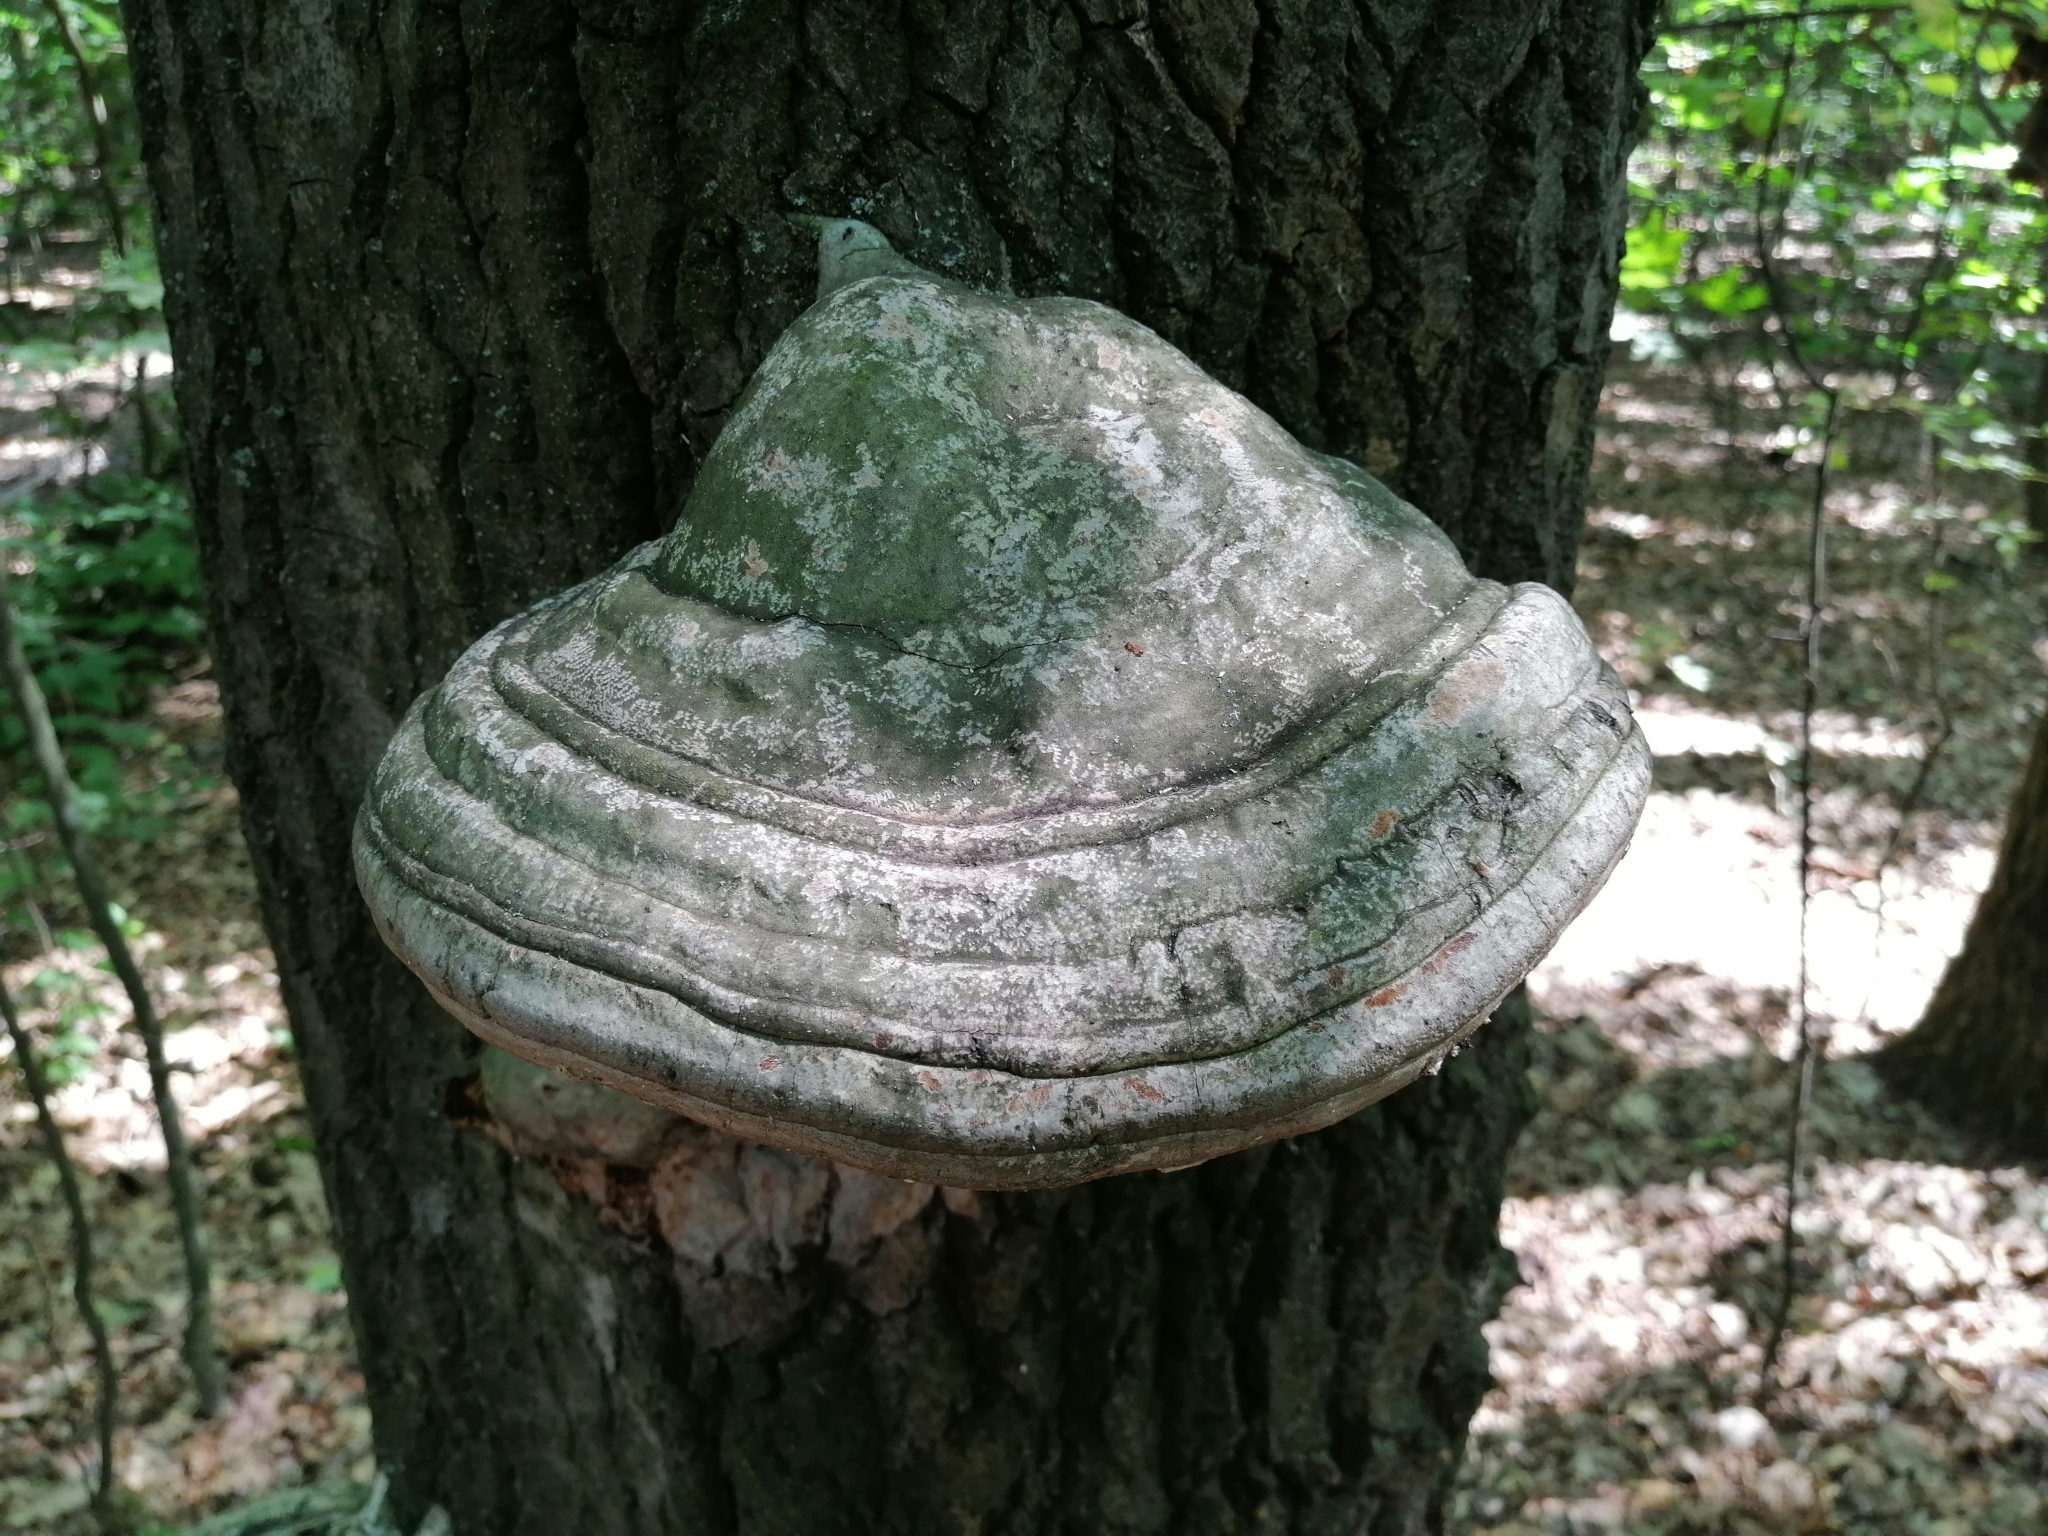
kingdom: Fungi
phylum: Basidiomycota
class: Agaricomycetes
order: Polyporales
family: Polyporaceae
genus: Fomes
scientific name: Fomes fomentarius
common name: Hoof fungus
